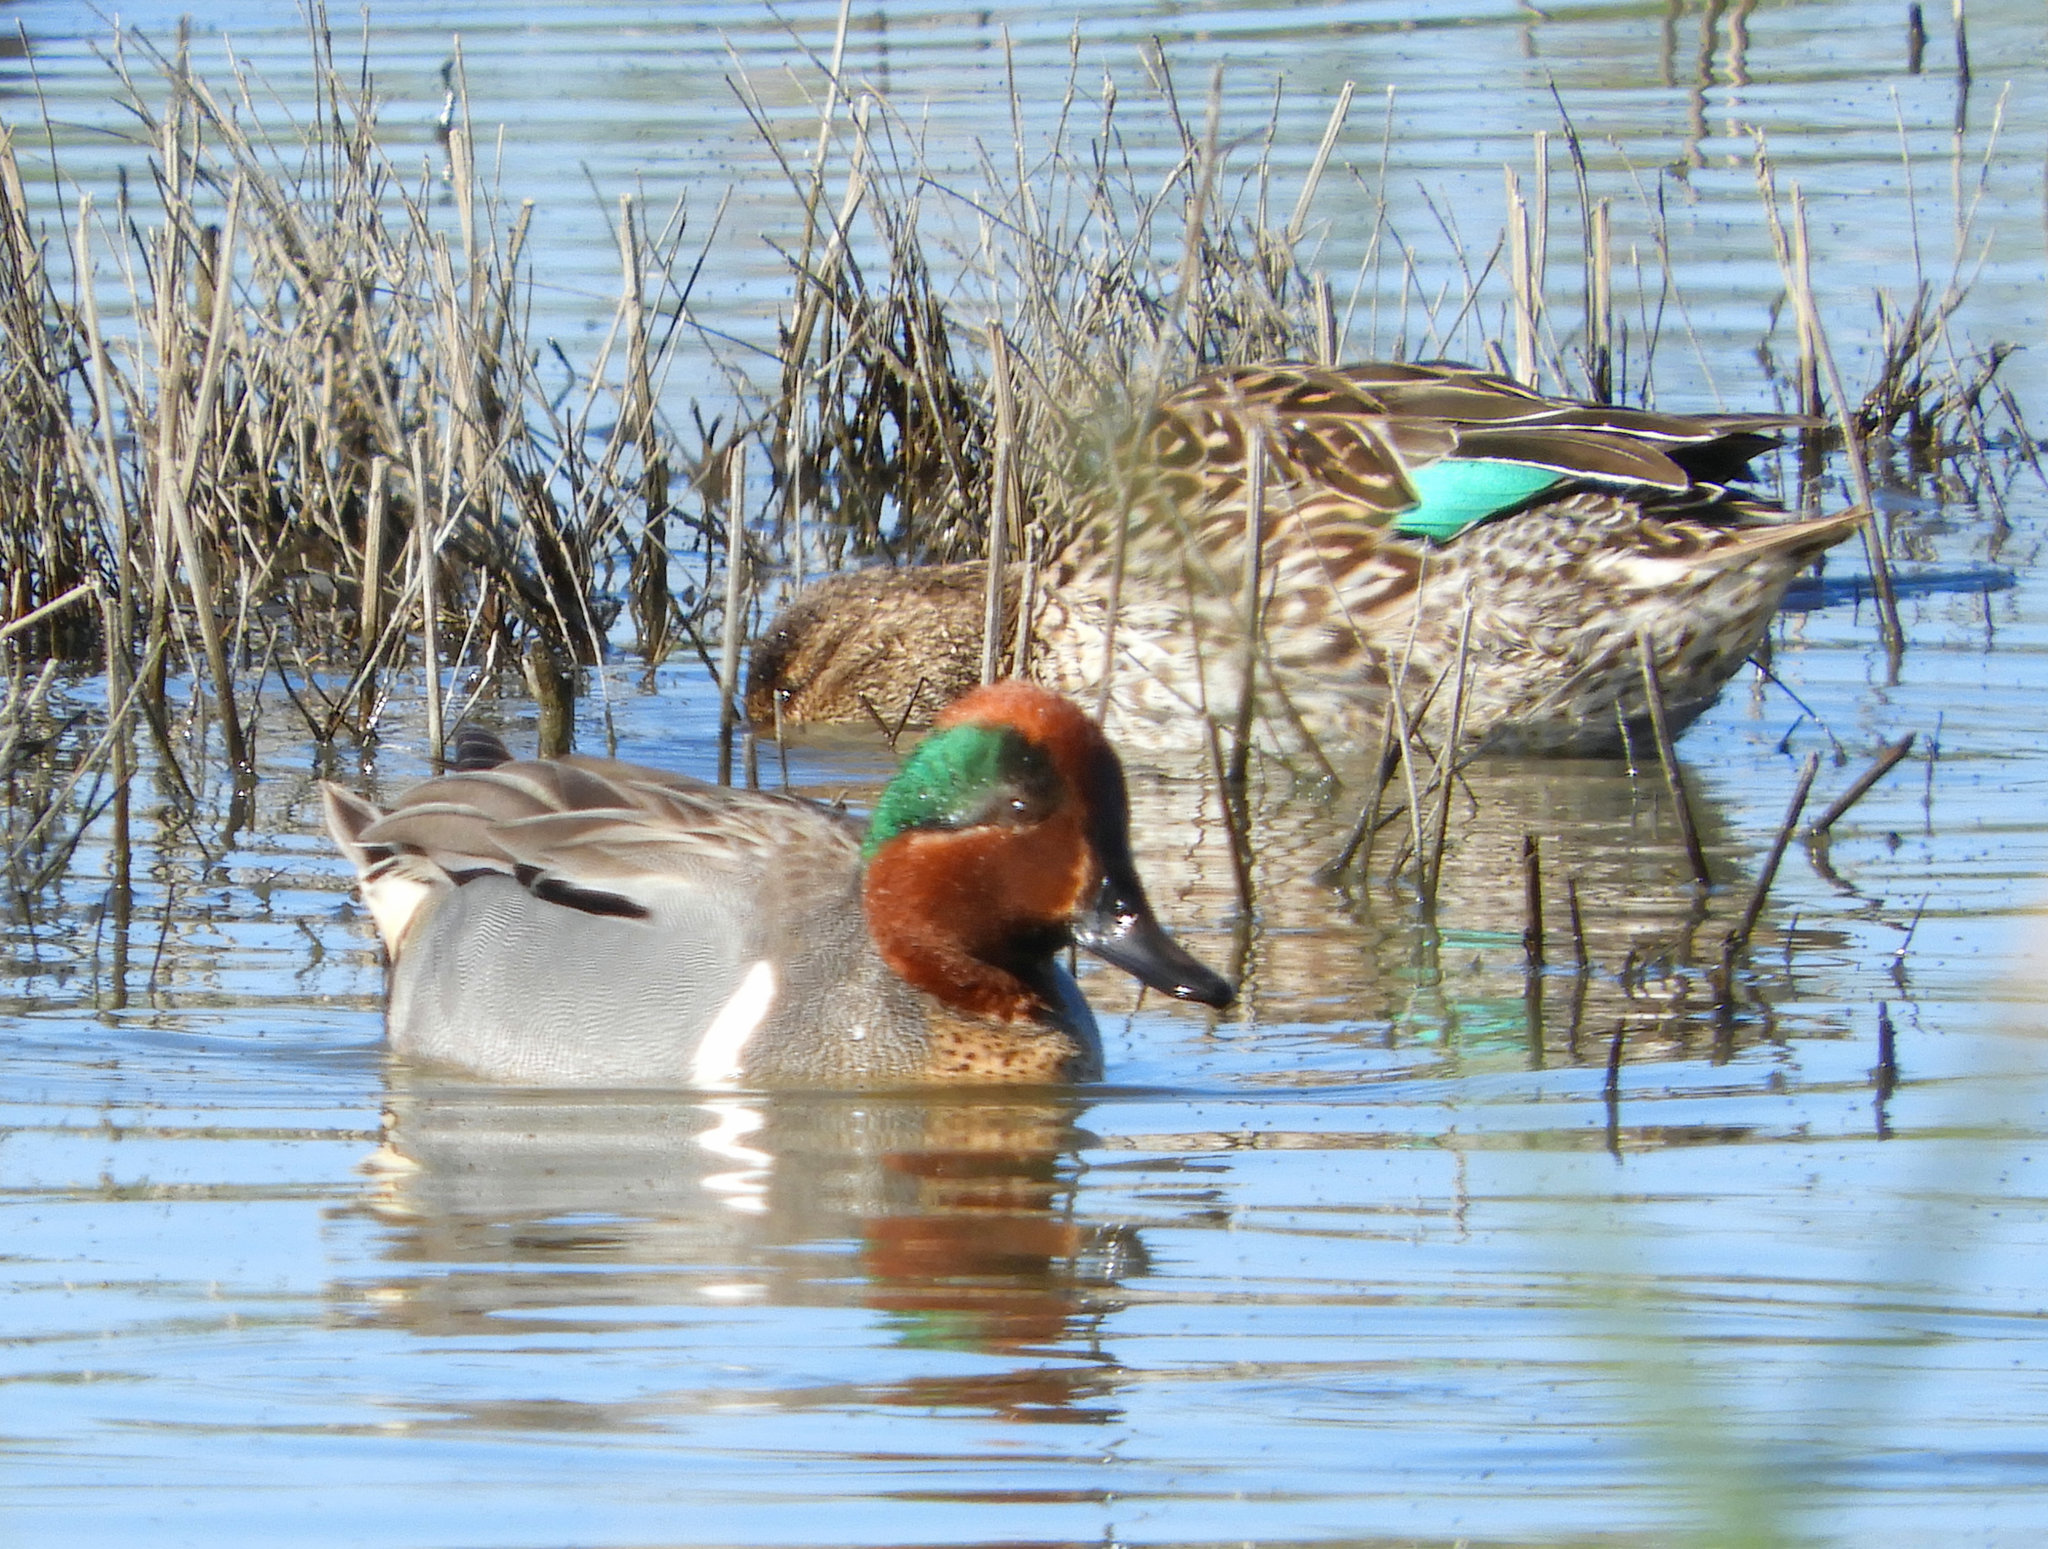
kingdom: Animalia
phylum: Chordata
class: Aves
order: Anseriformes
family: Anatidae
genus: Anas
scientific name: Anas crecca
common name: Eurasian teal
